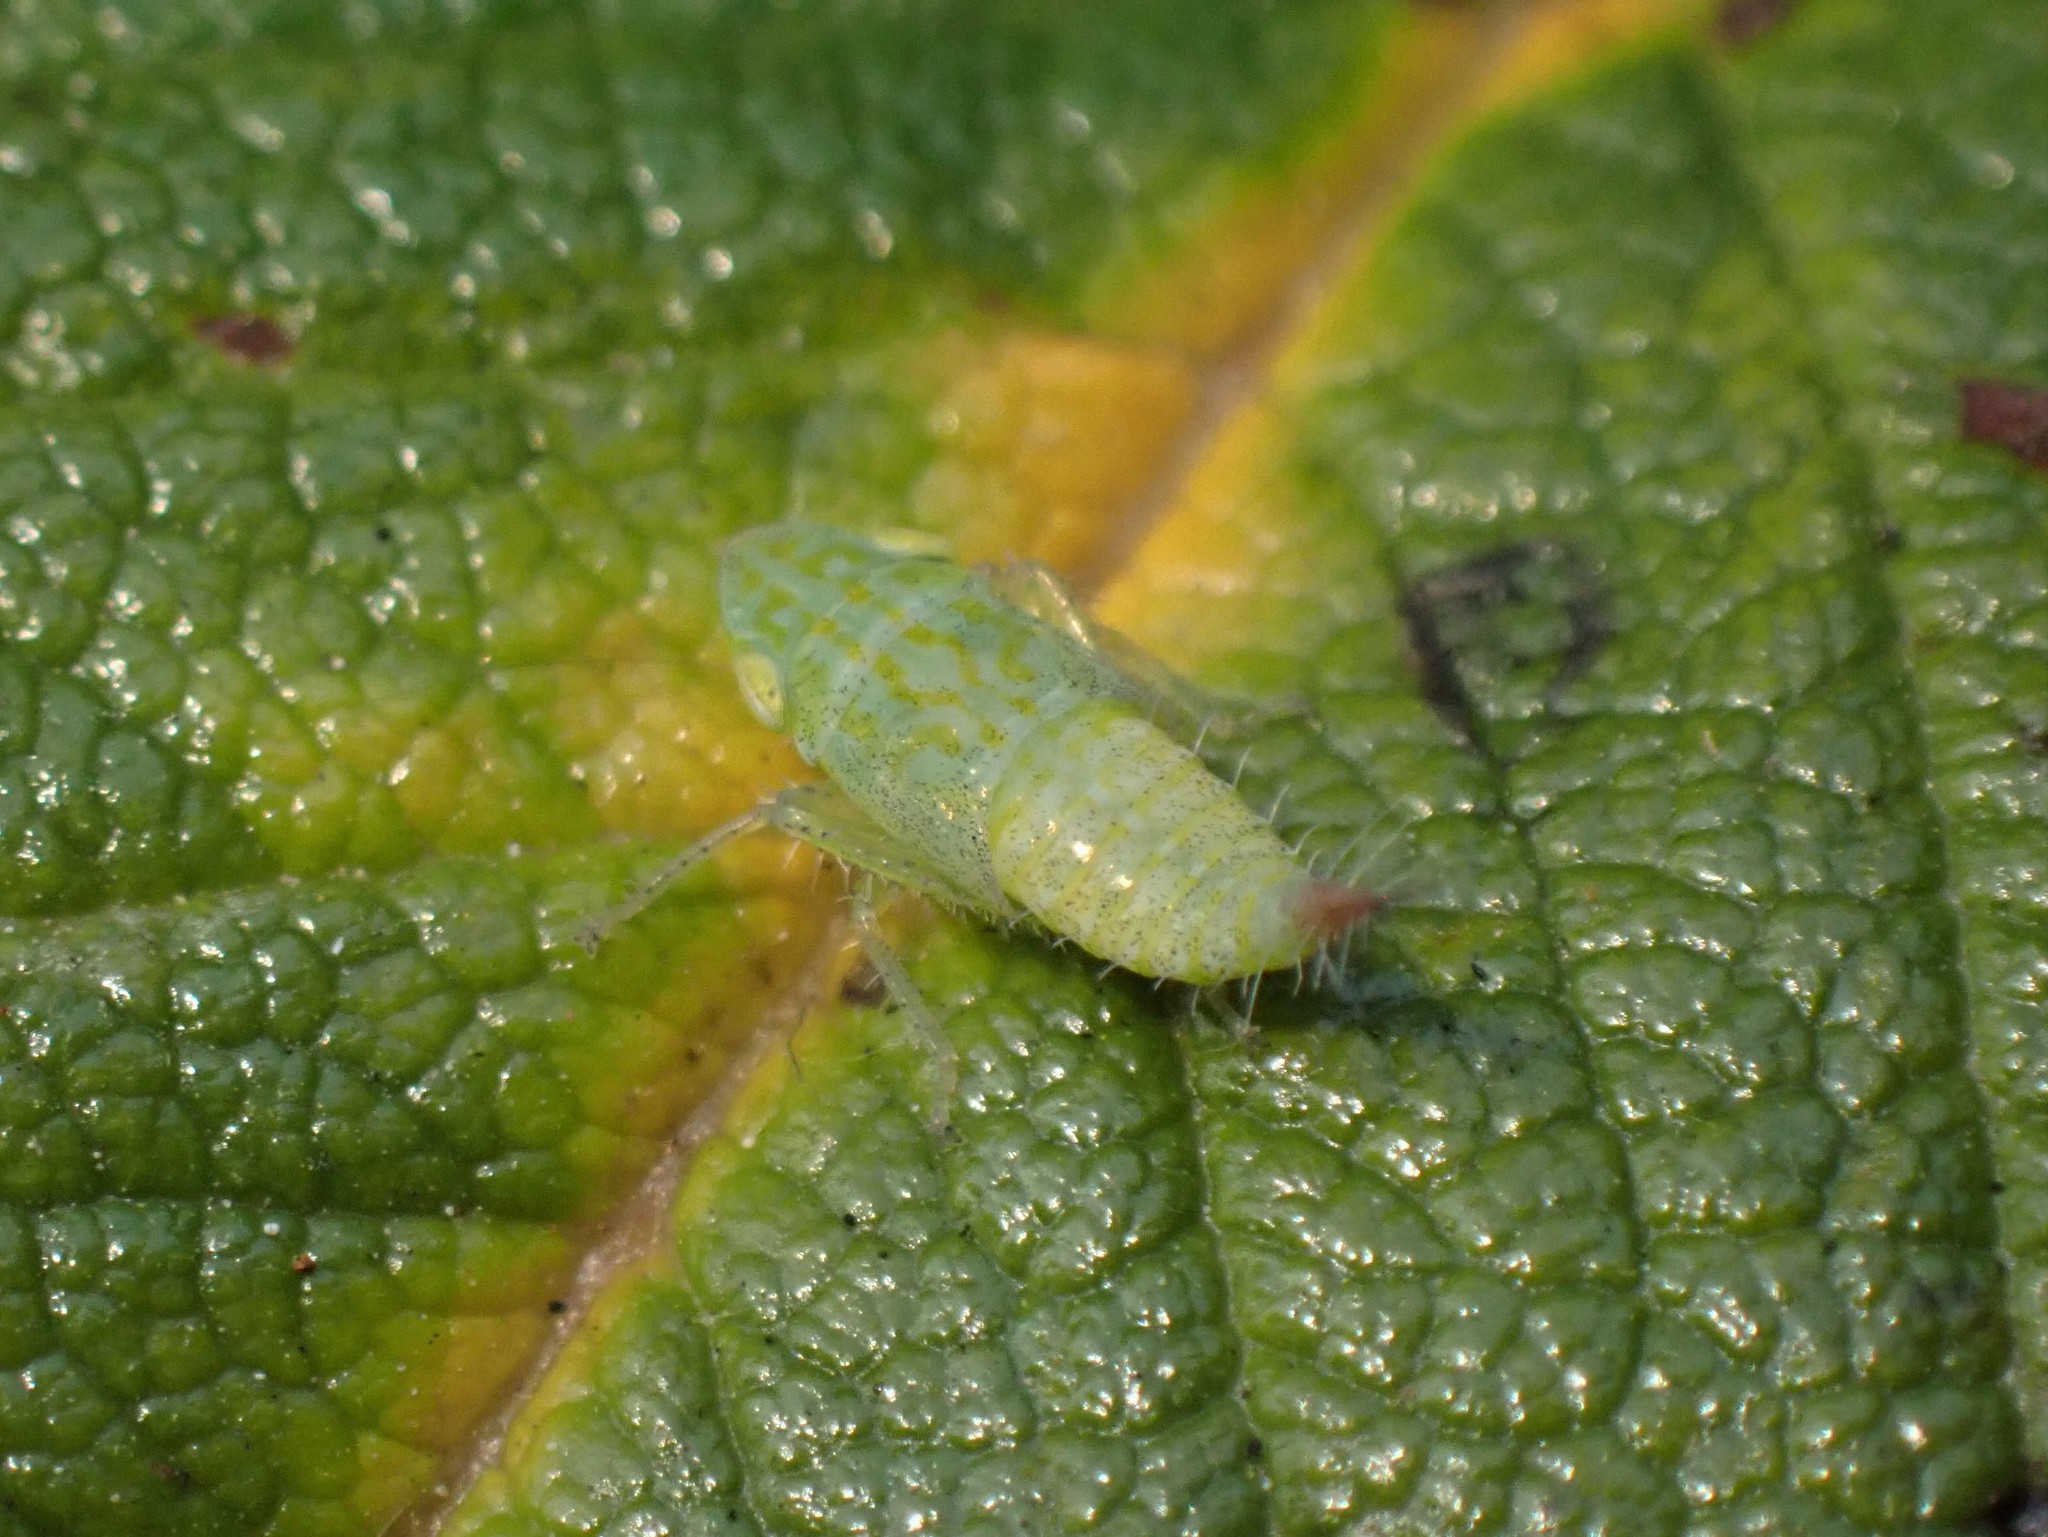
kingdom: Animalia
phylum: Arthropoda
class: Insecta
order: Hemiptera
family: Cicadellidae
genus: Fieberiella
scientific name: Fieberiella florii
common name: Flor’s leafhopper
